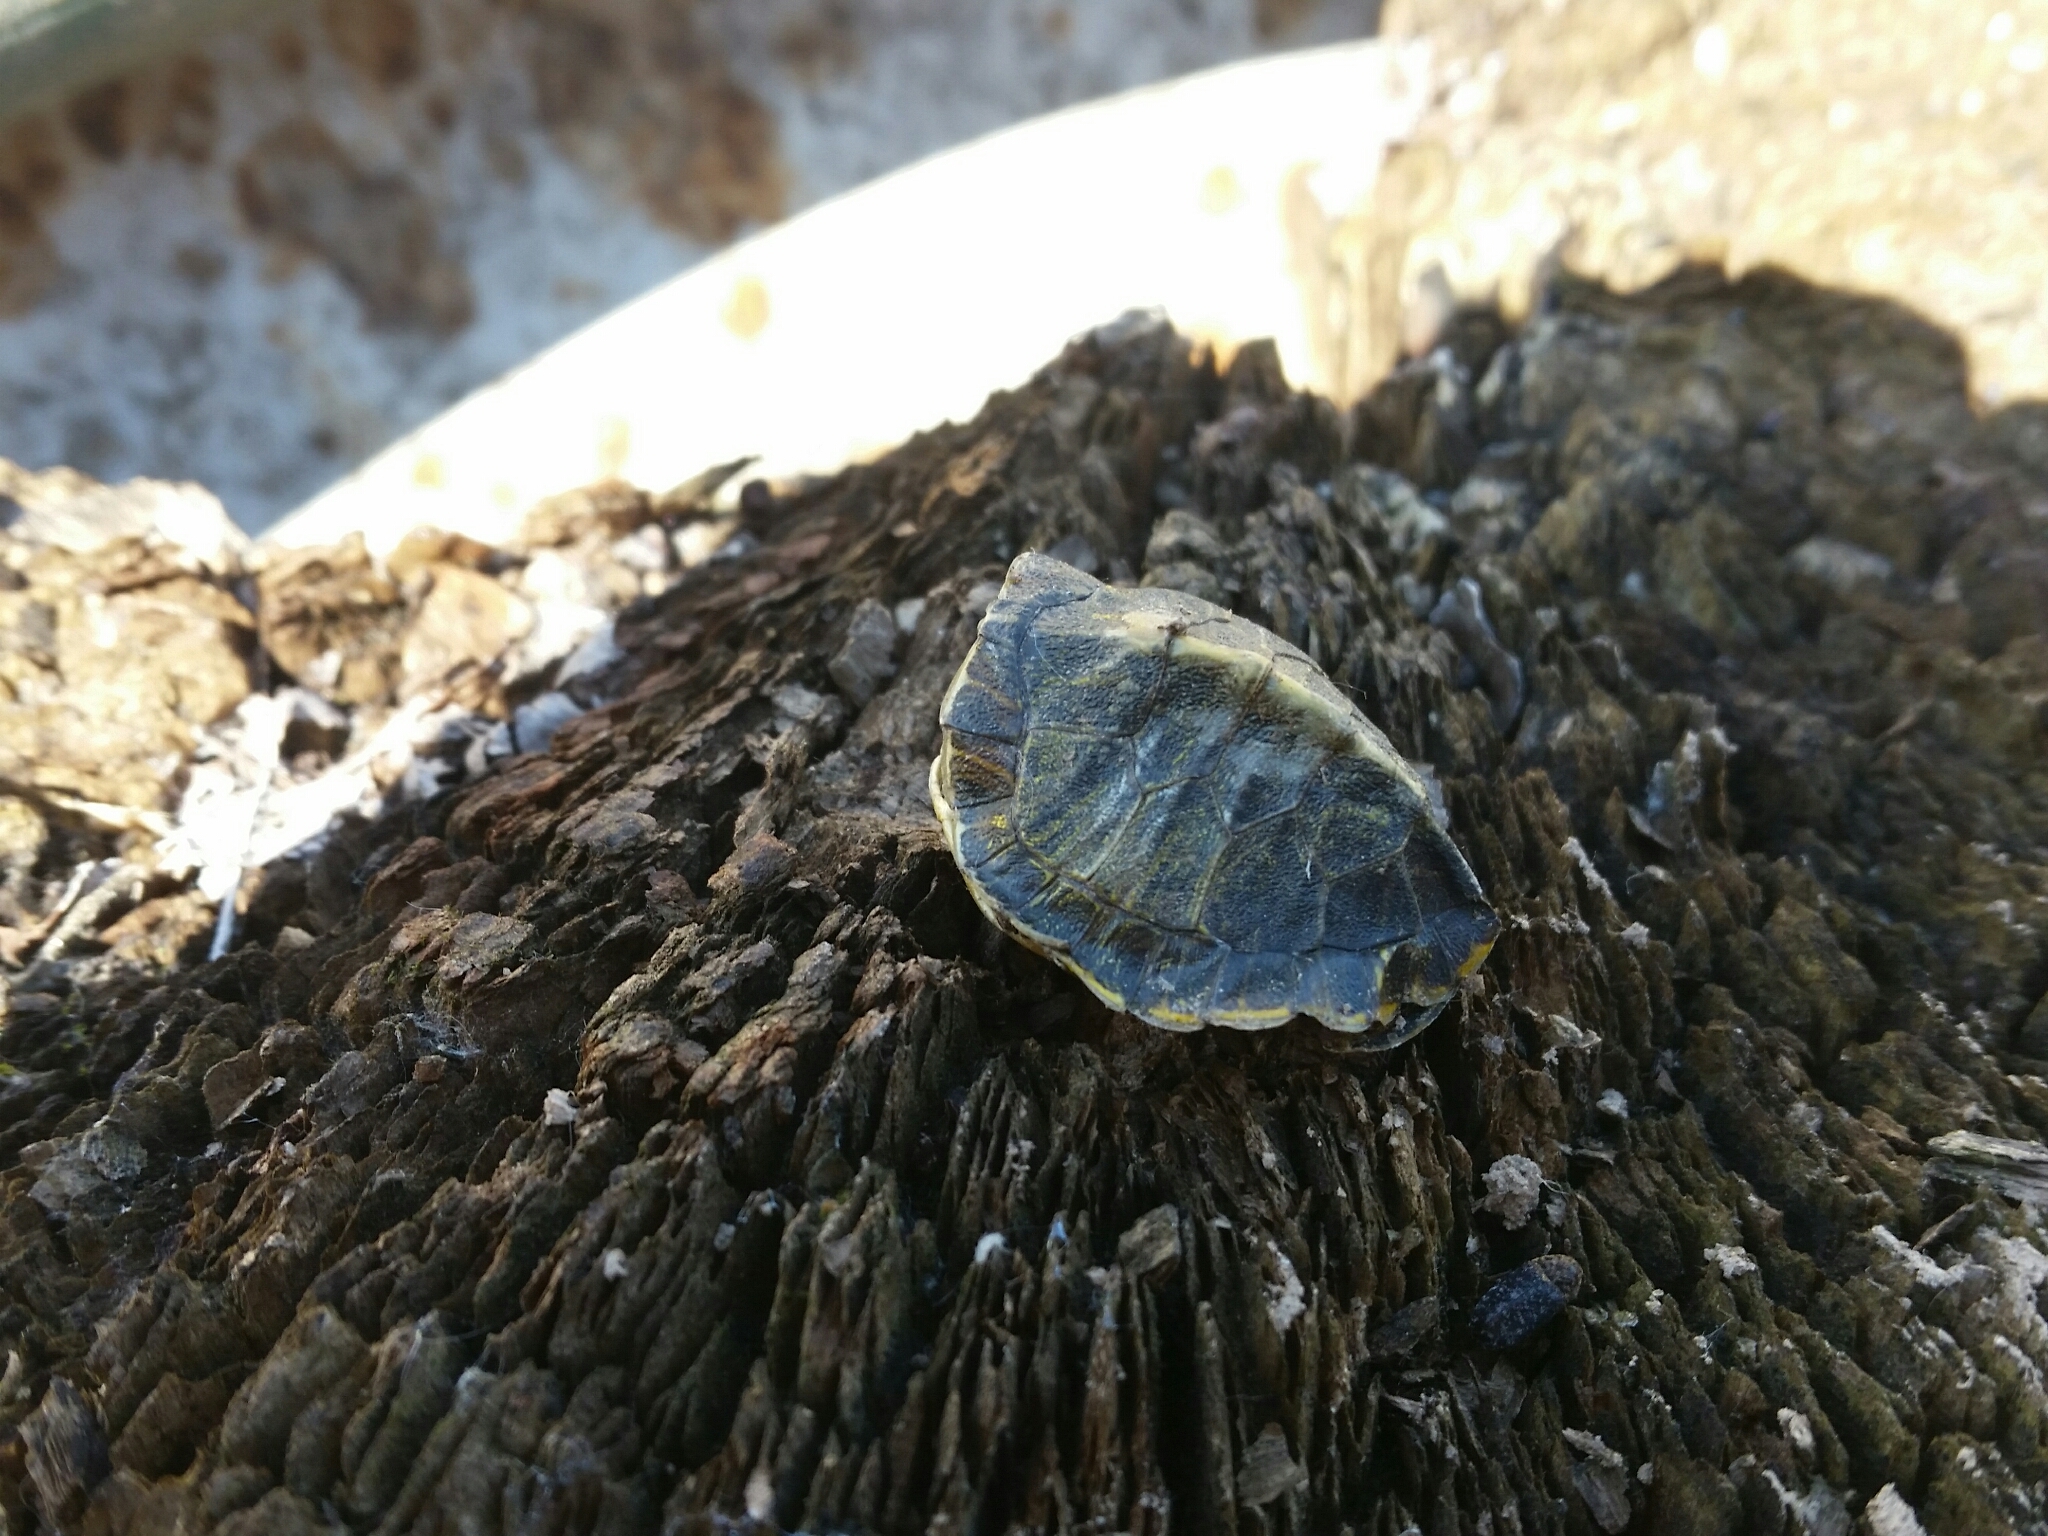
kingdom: Animalia
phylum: Chordata
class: Testudines
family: Emydidae
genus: Trachemys
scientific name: Trachemys scripta
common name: Slider
